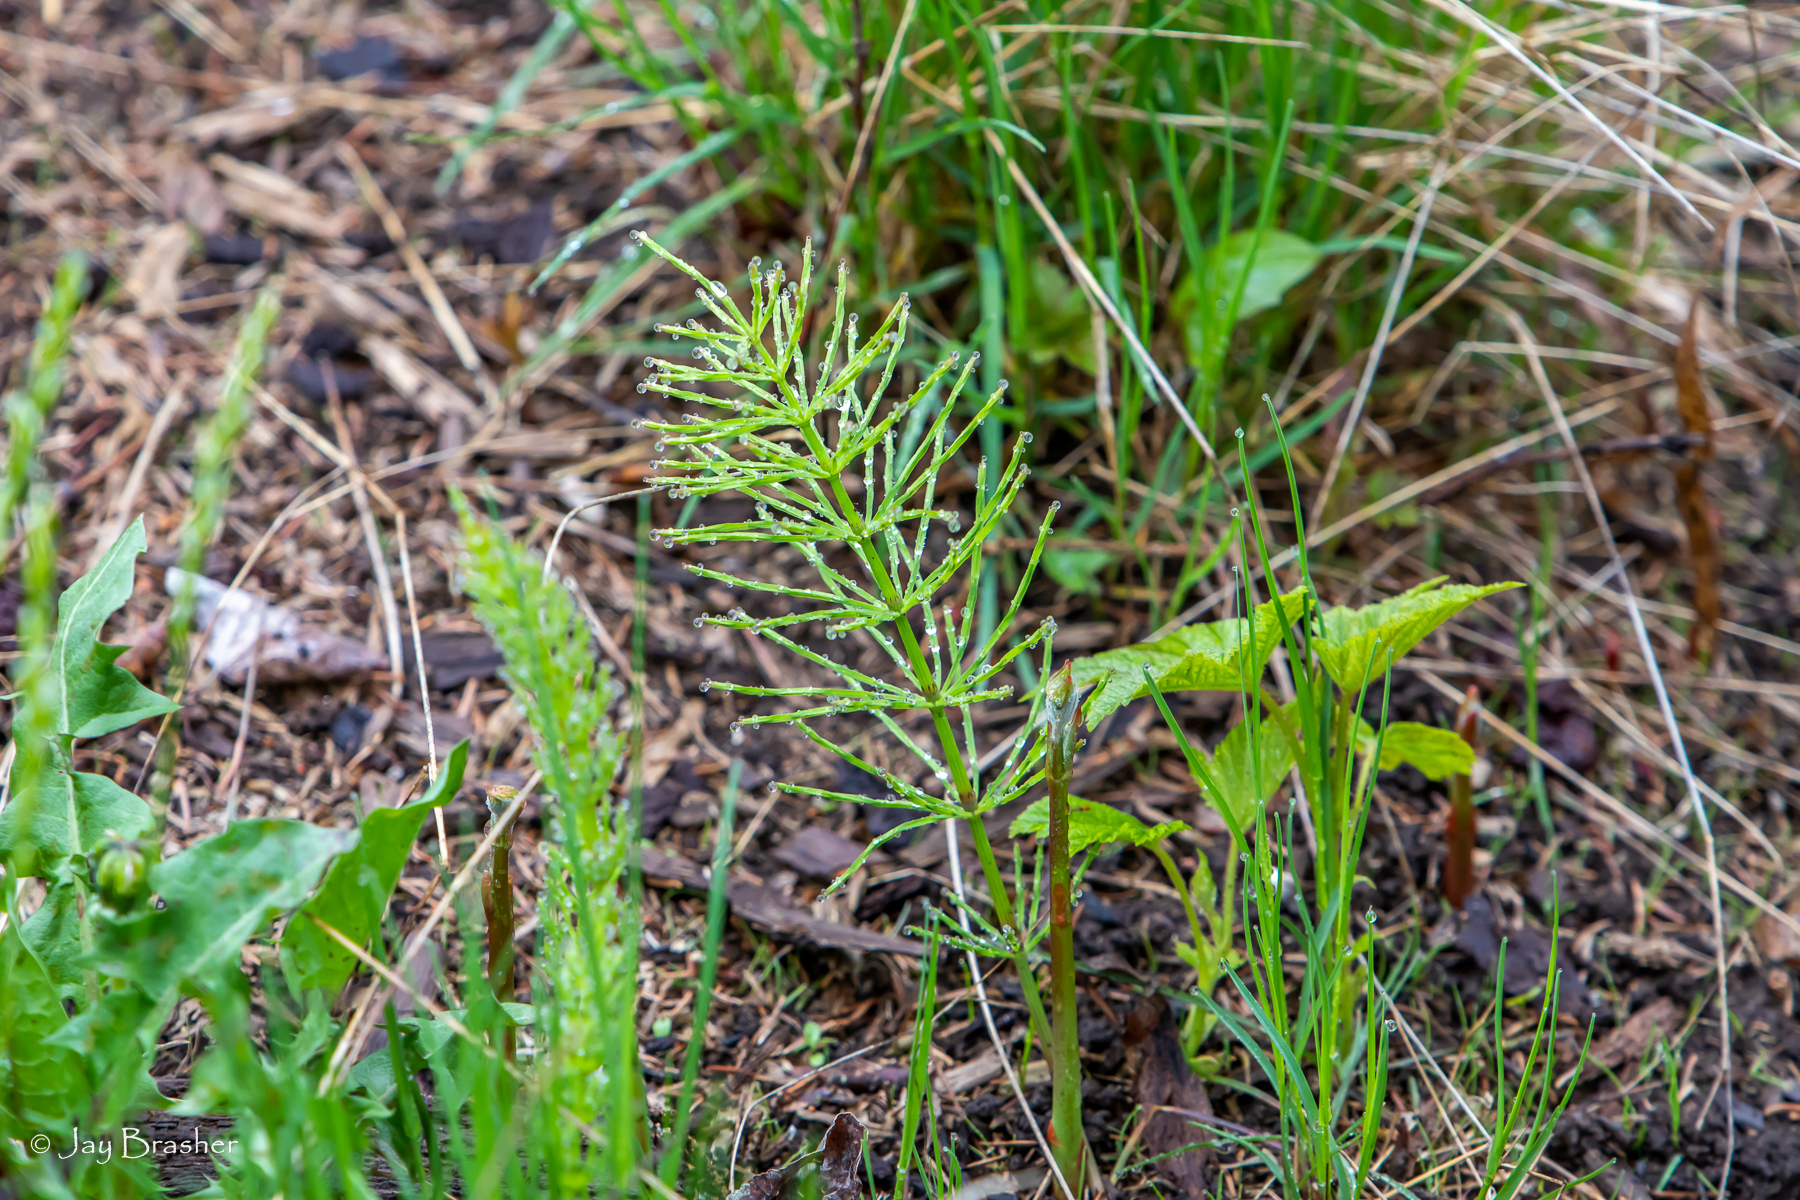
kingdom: Plantae
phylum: Tracheophyta
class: Polypodiopsida
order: Equisetales
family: Equisetaceae
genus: Equisetum
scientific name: Equisetum arvense
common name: Field horsetail
